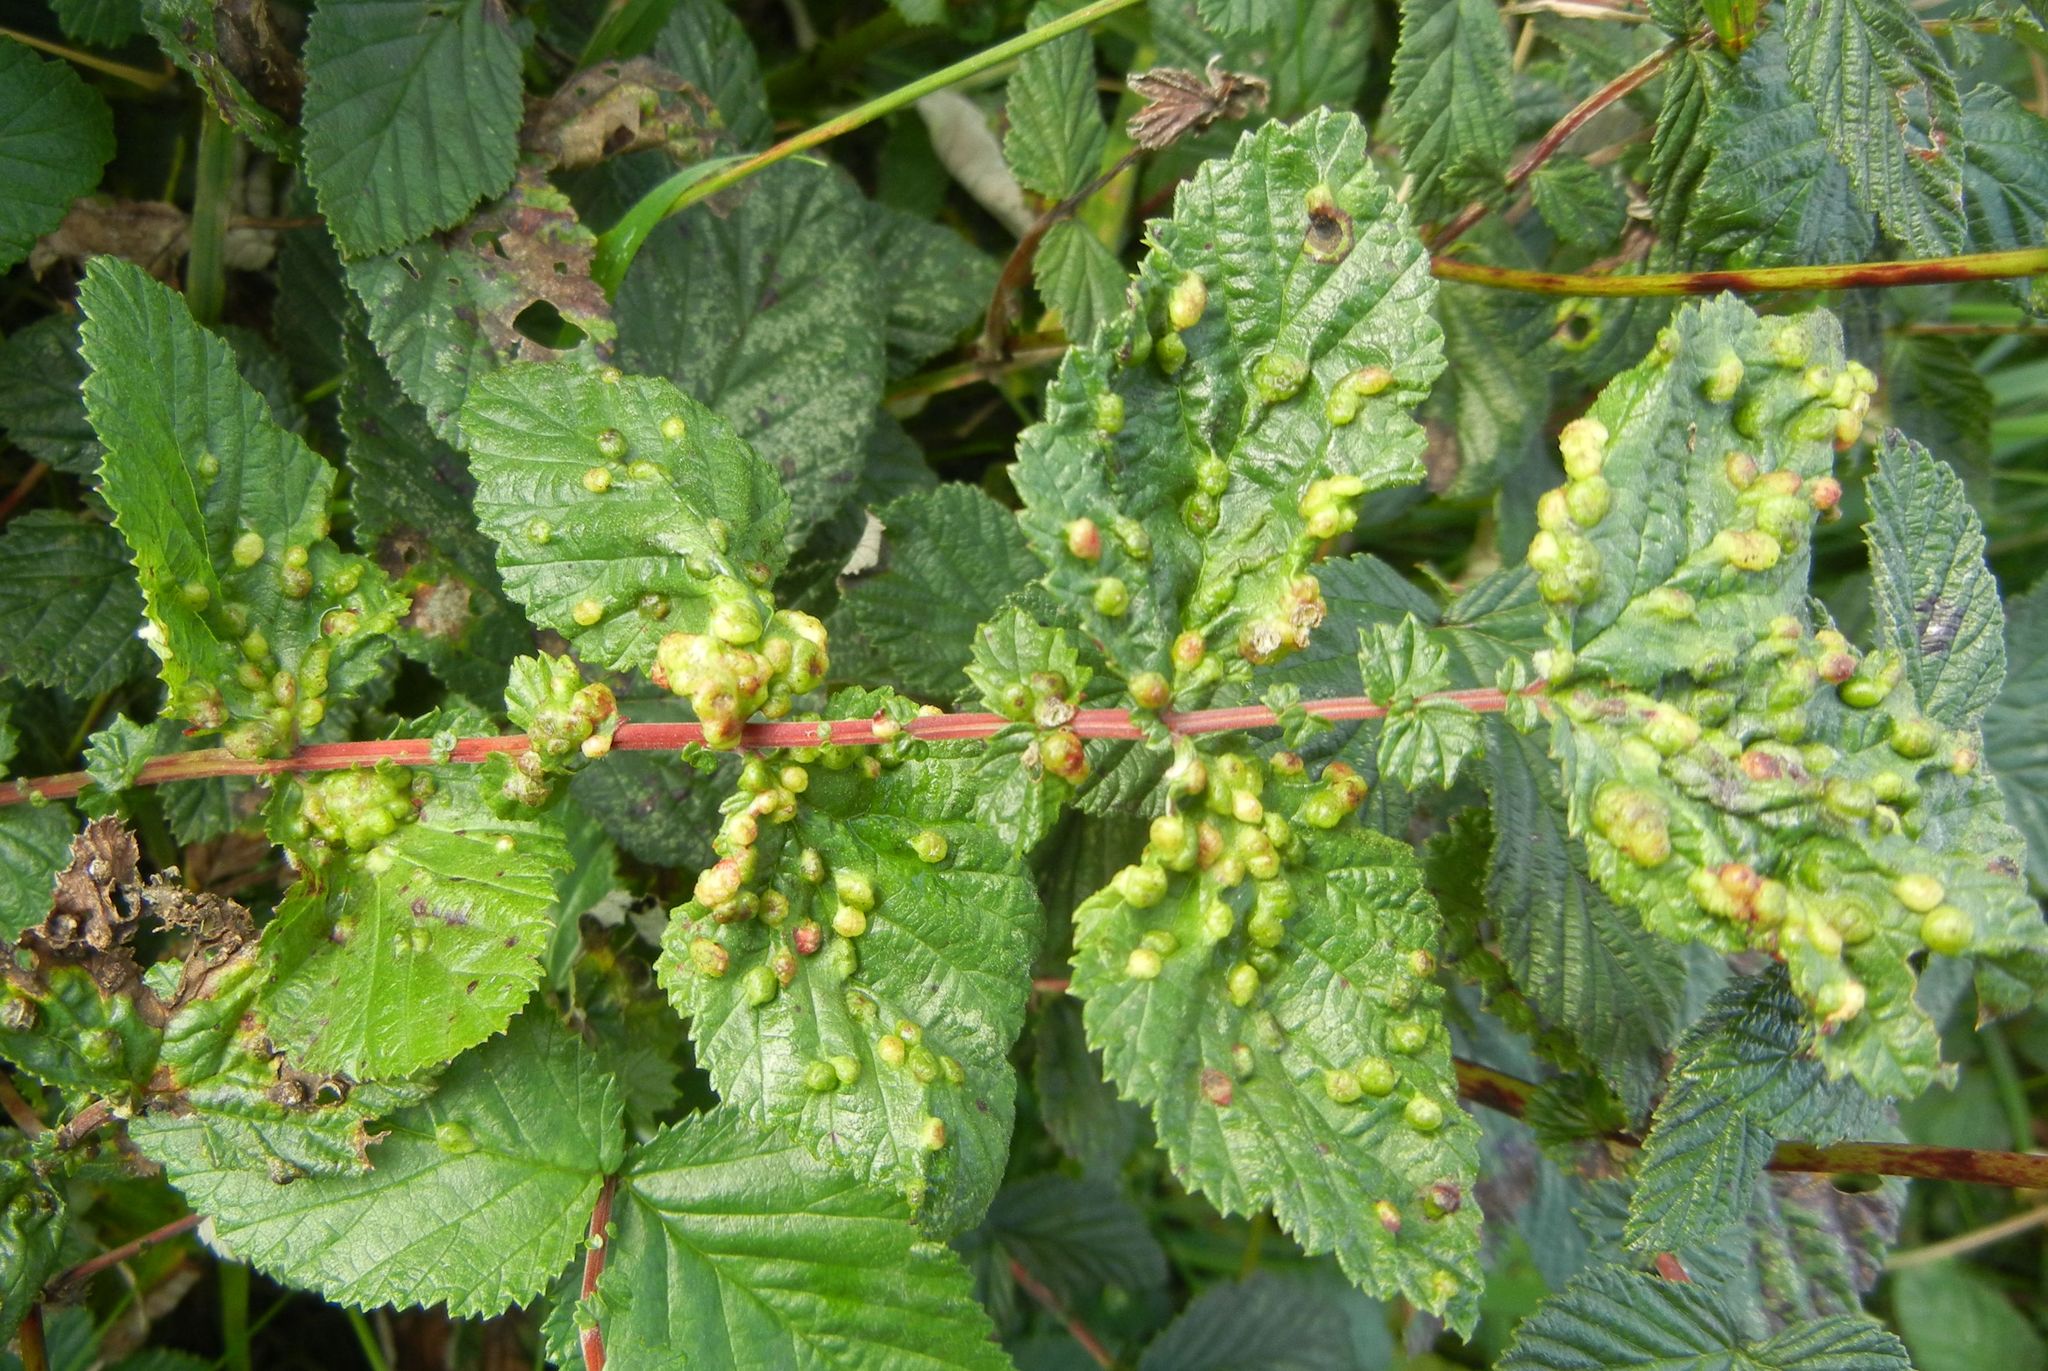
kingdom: Animalia
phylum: Arthropoda
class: Insecta
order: Diptera
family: Cecidomyiidae
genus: Dasineura
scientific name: Dasineura ulmaria
